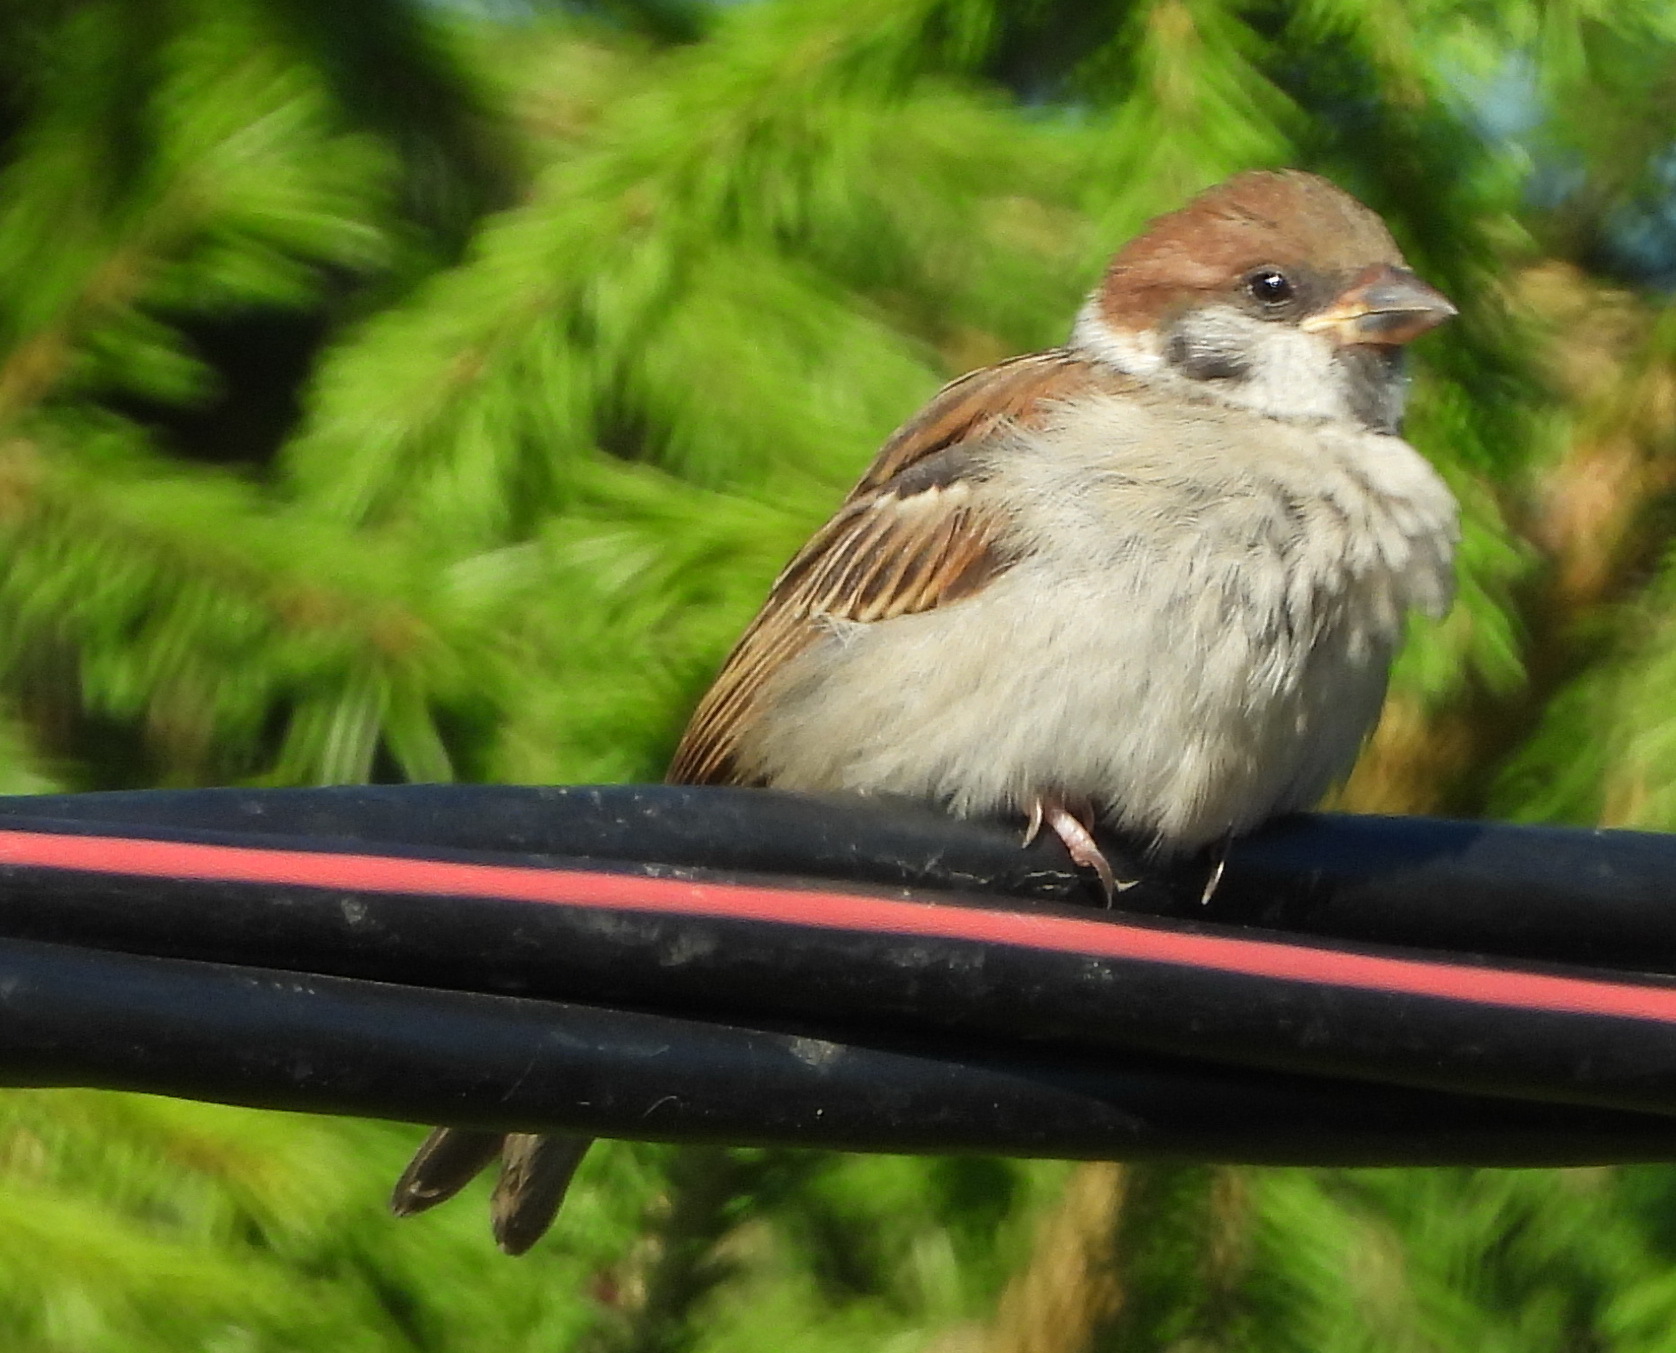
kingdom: Animalia
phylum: Chordata
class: Aves
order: Passeriformes
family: Passeridae
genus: Passer
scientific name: Passer montanus
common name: Eurasian tree sparrow
